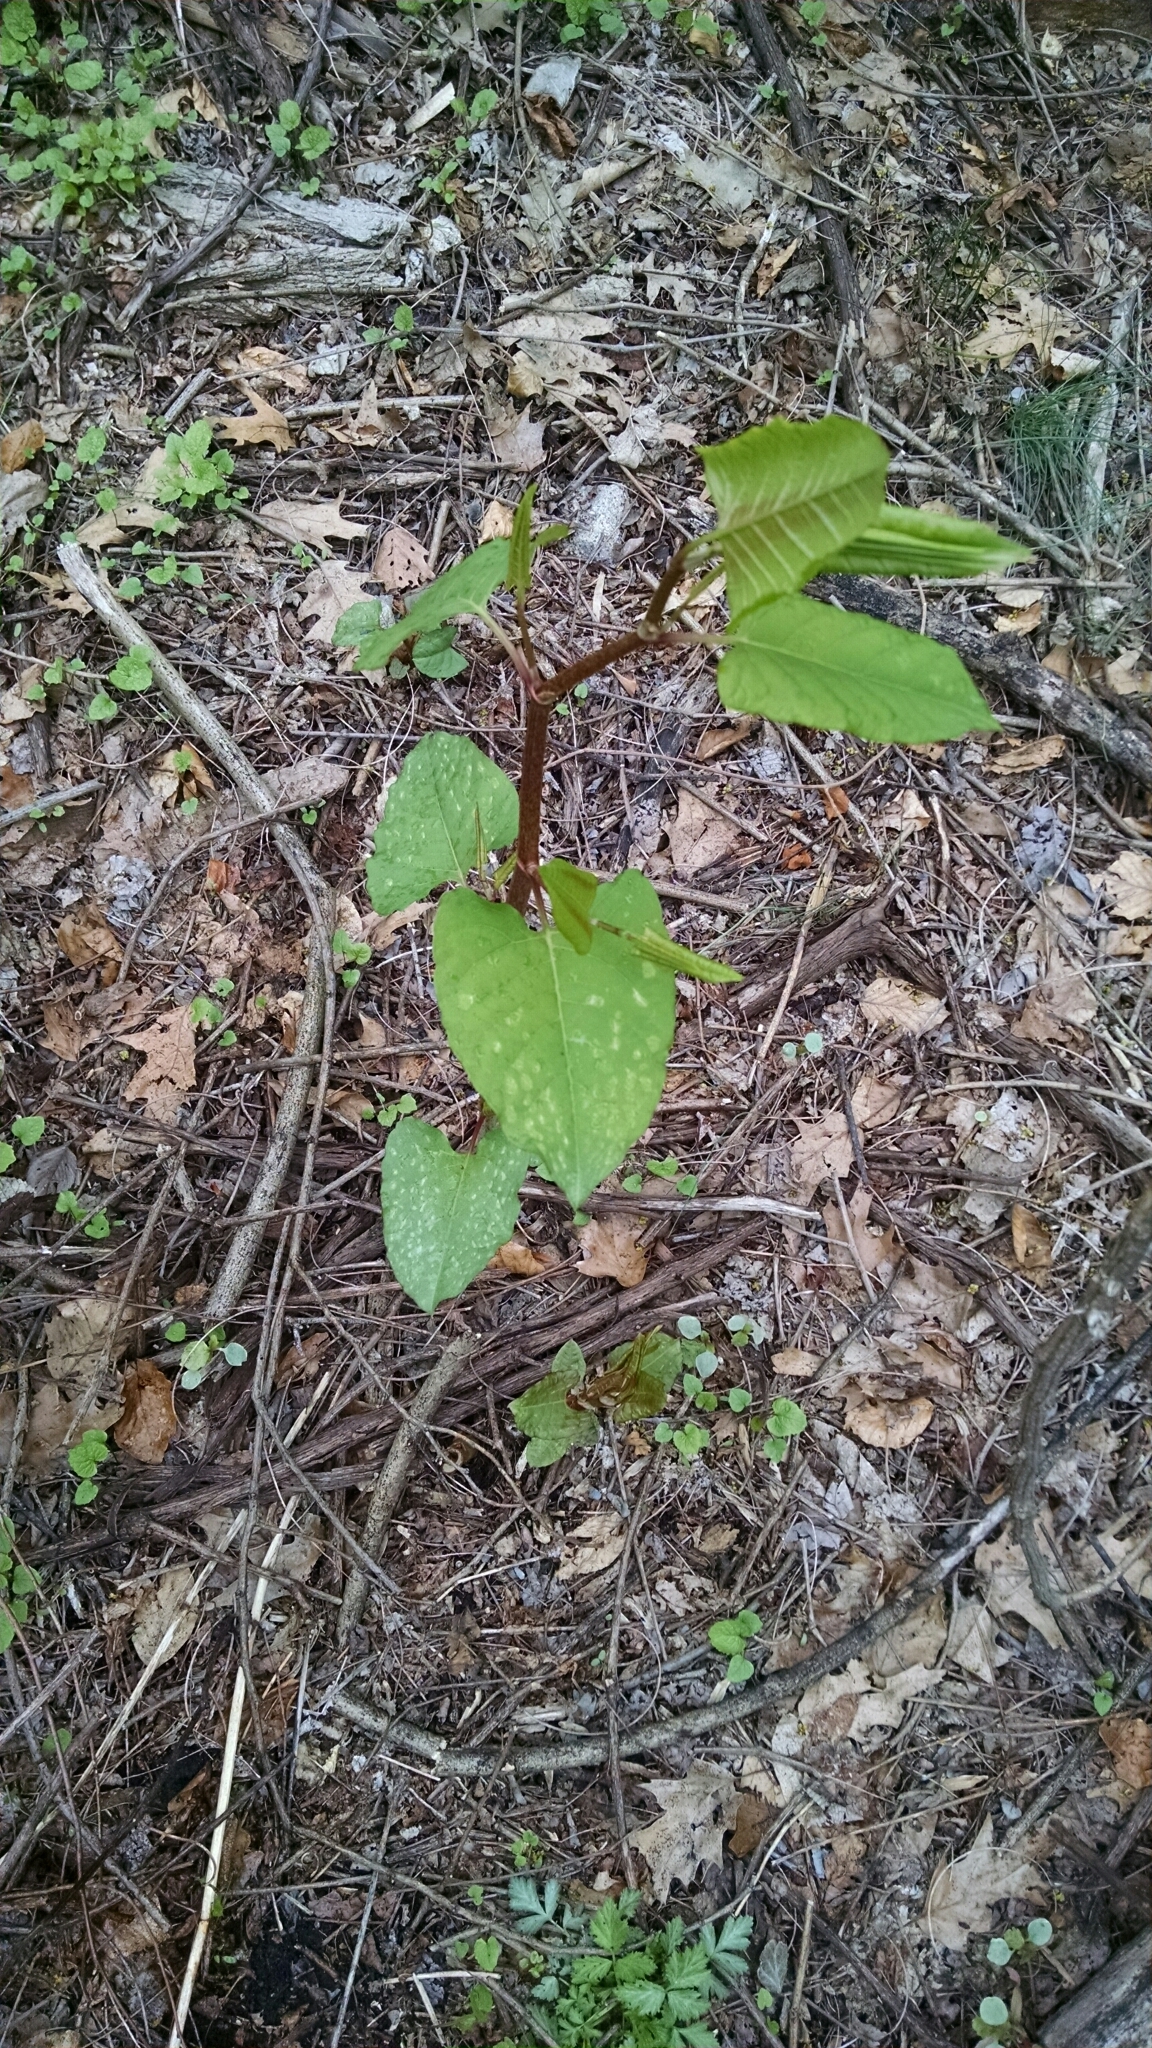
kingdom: Plantae
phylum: Tracheophyta
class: Magnoliopsida
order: Caryophyllales
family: Polygonaceae
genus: Reynoutria
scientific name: Reynoutria japonica
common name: Japanese knotweed
